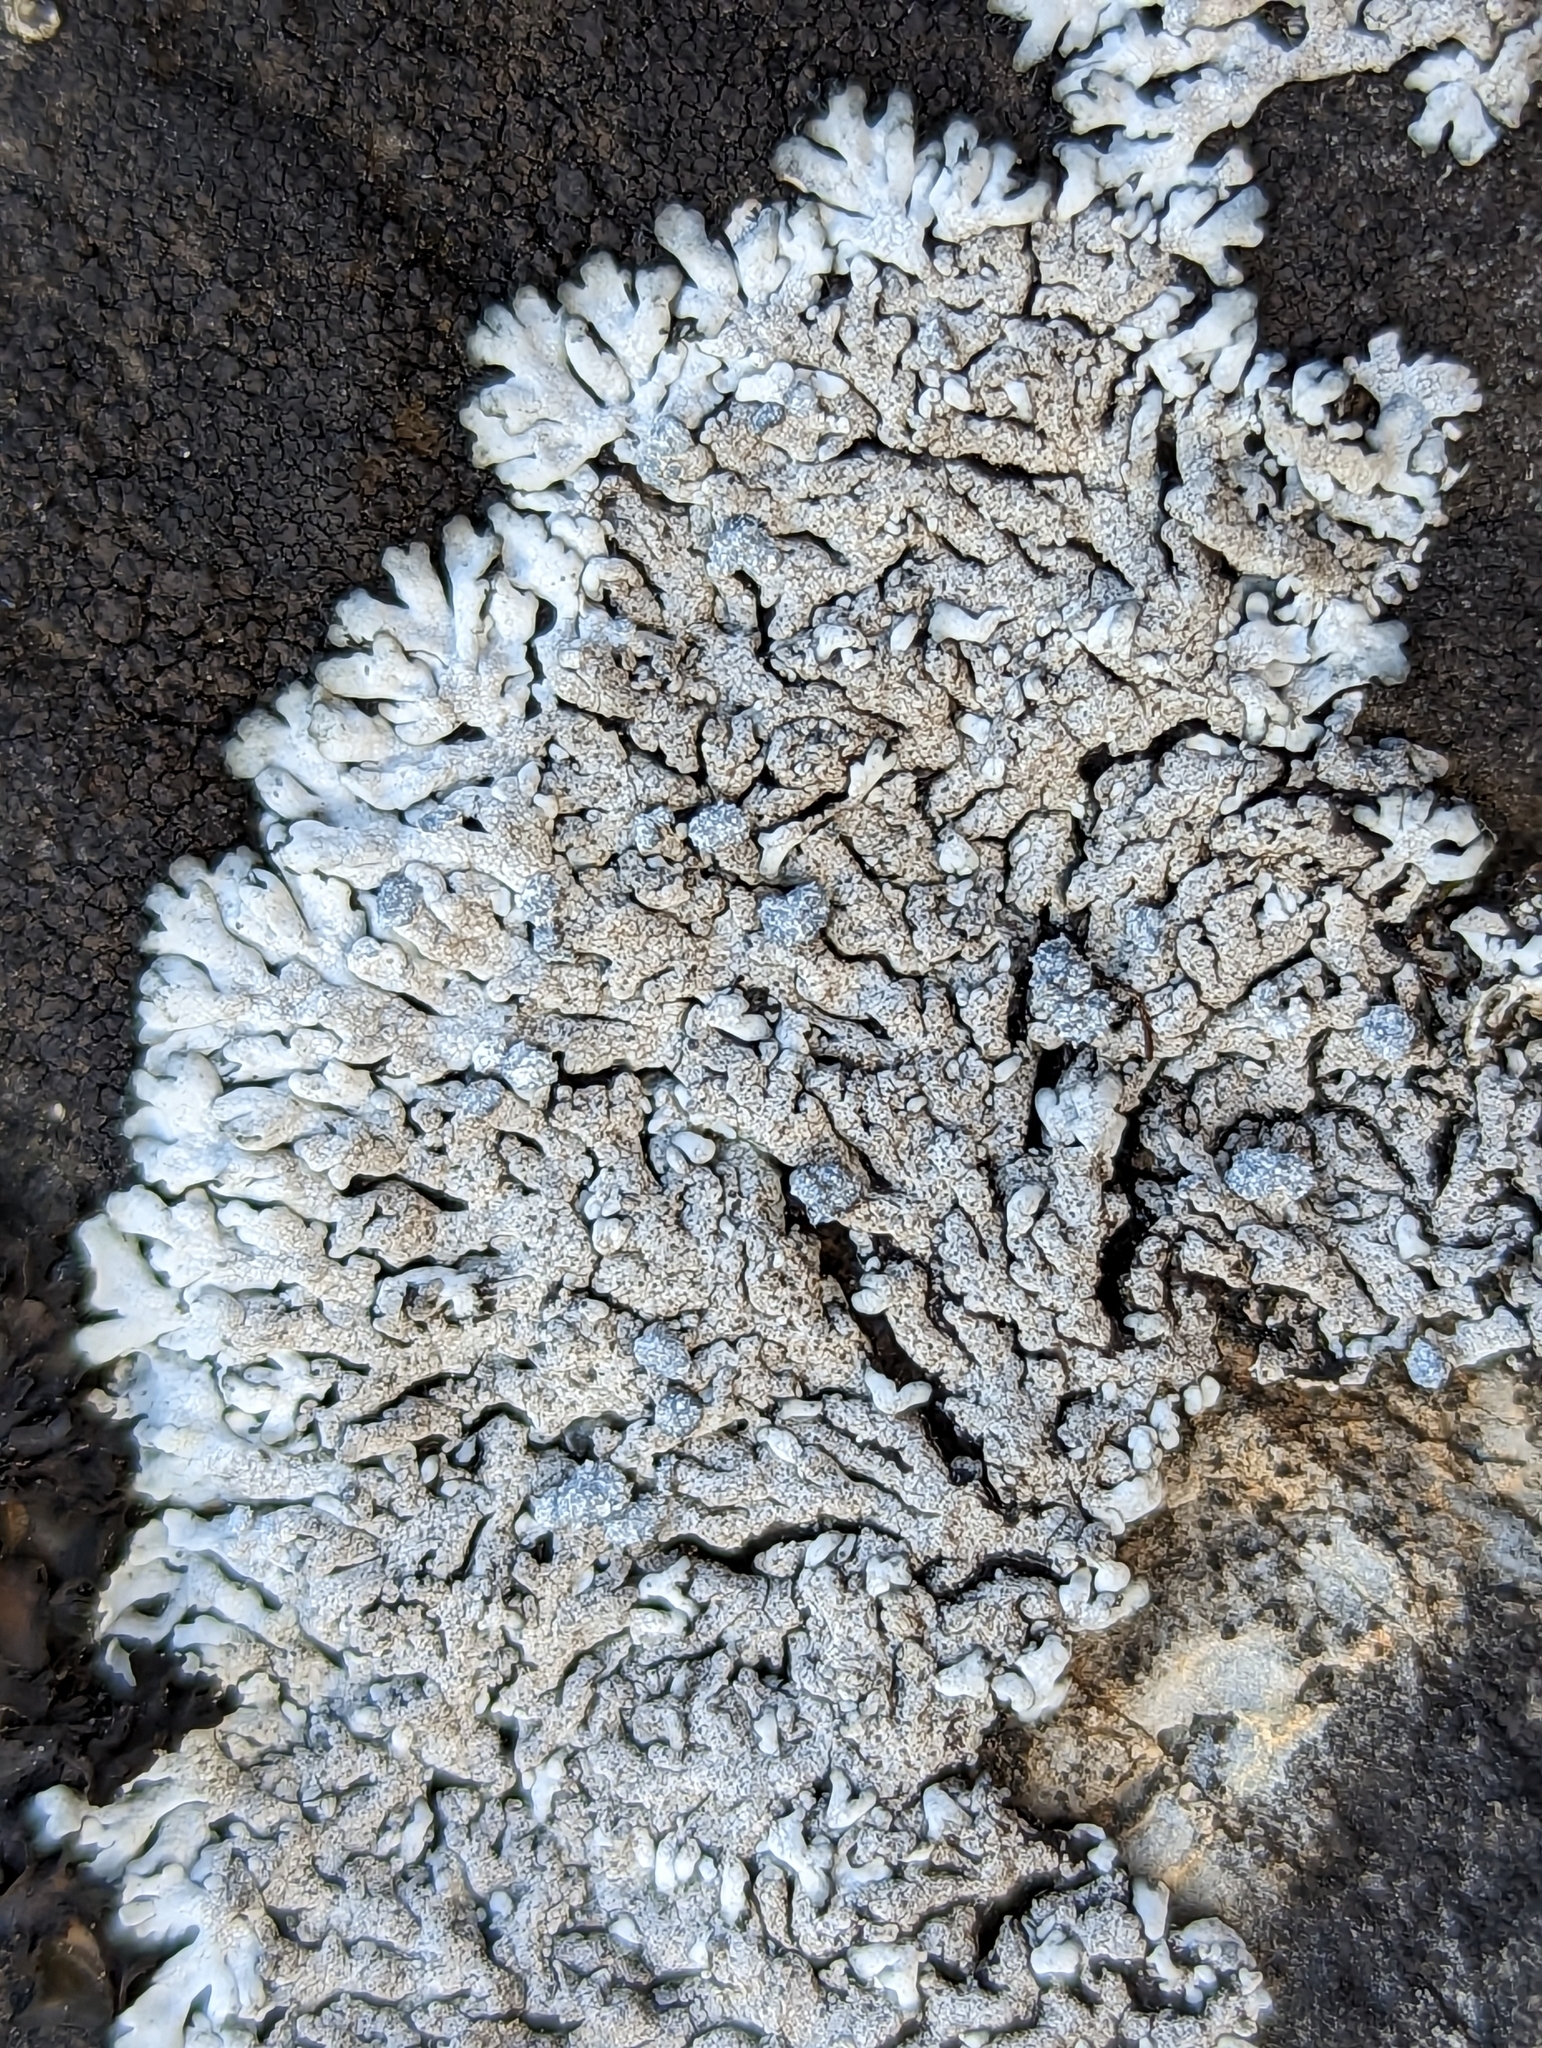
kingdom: Fungi
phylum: Ascomycota
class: Lecanoromycetes
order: Caliciales
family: Physciaceae
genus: Physcia
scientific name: Physcia caesia
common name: Blue-gray rosette lichen
